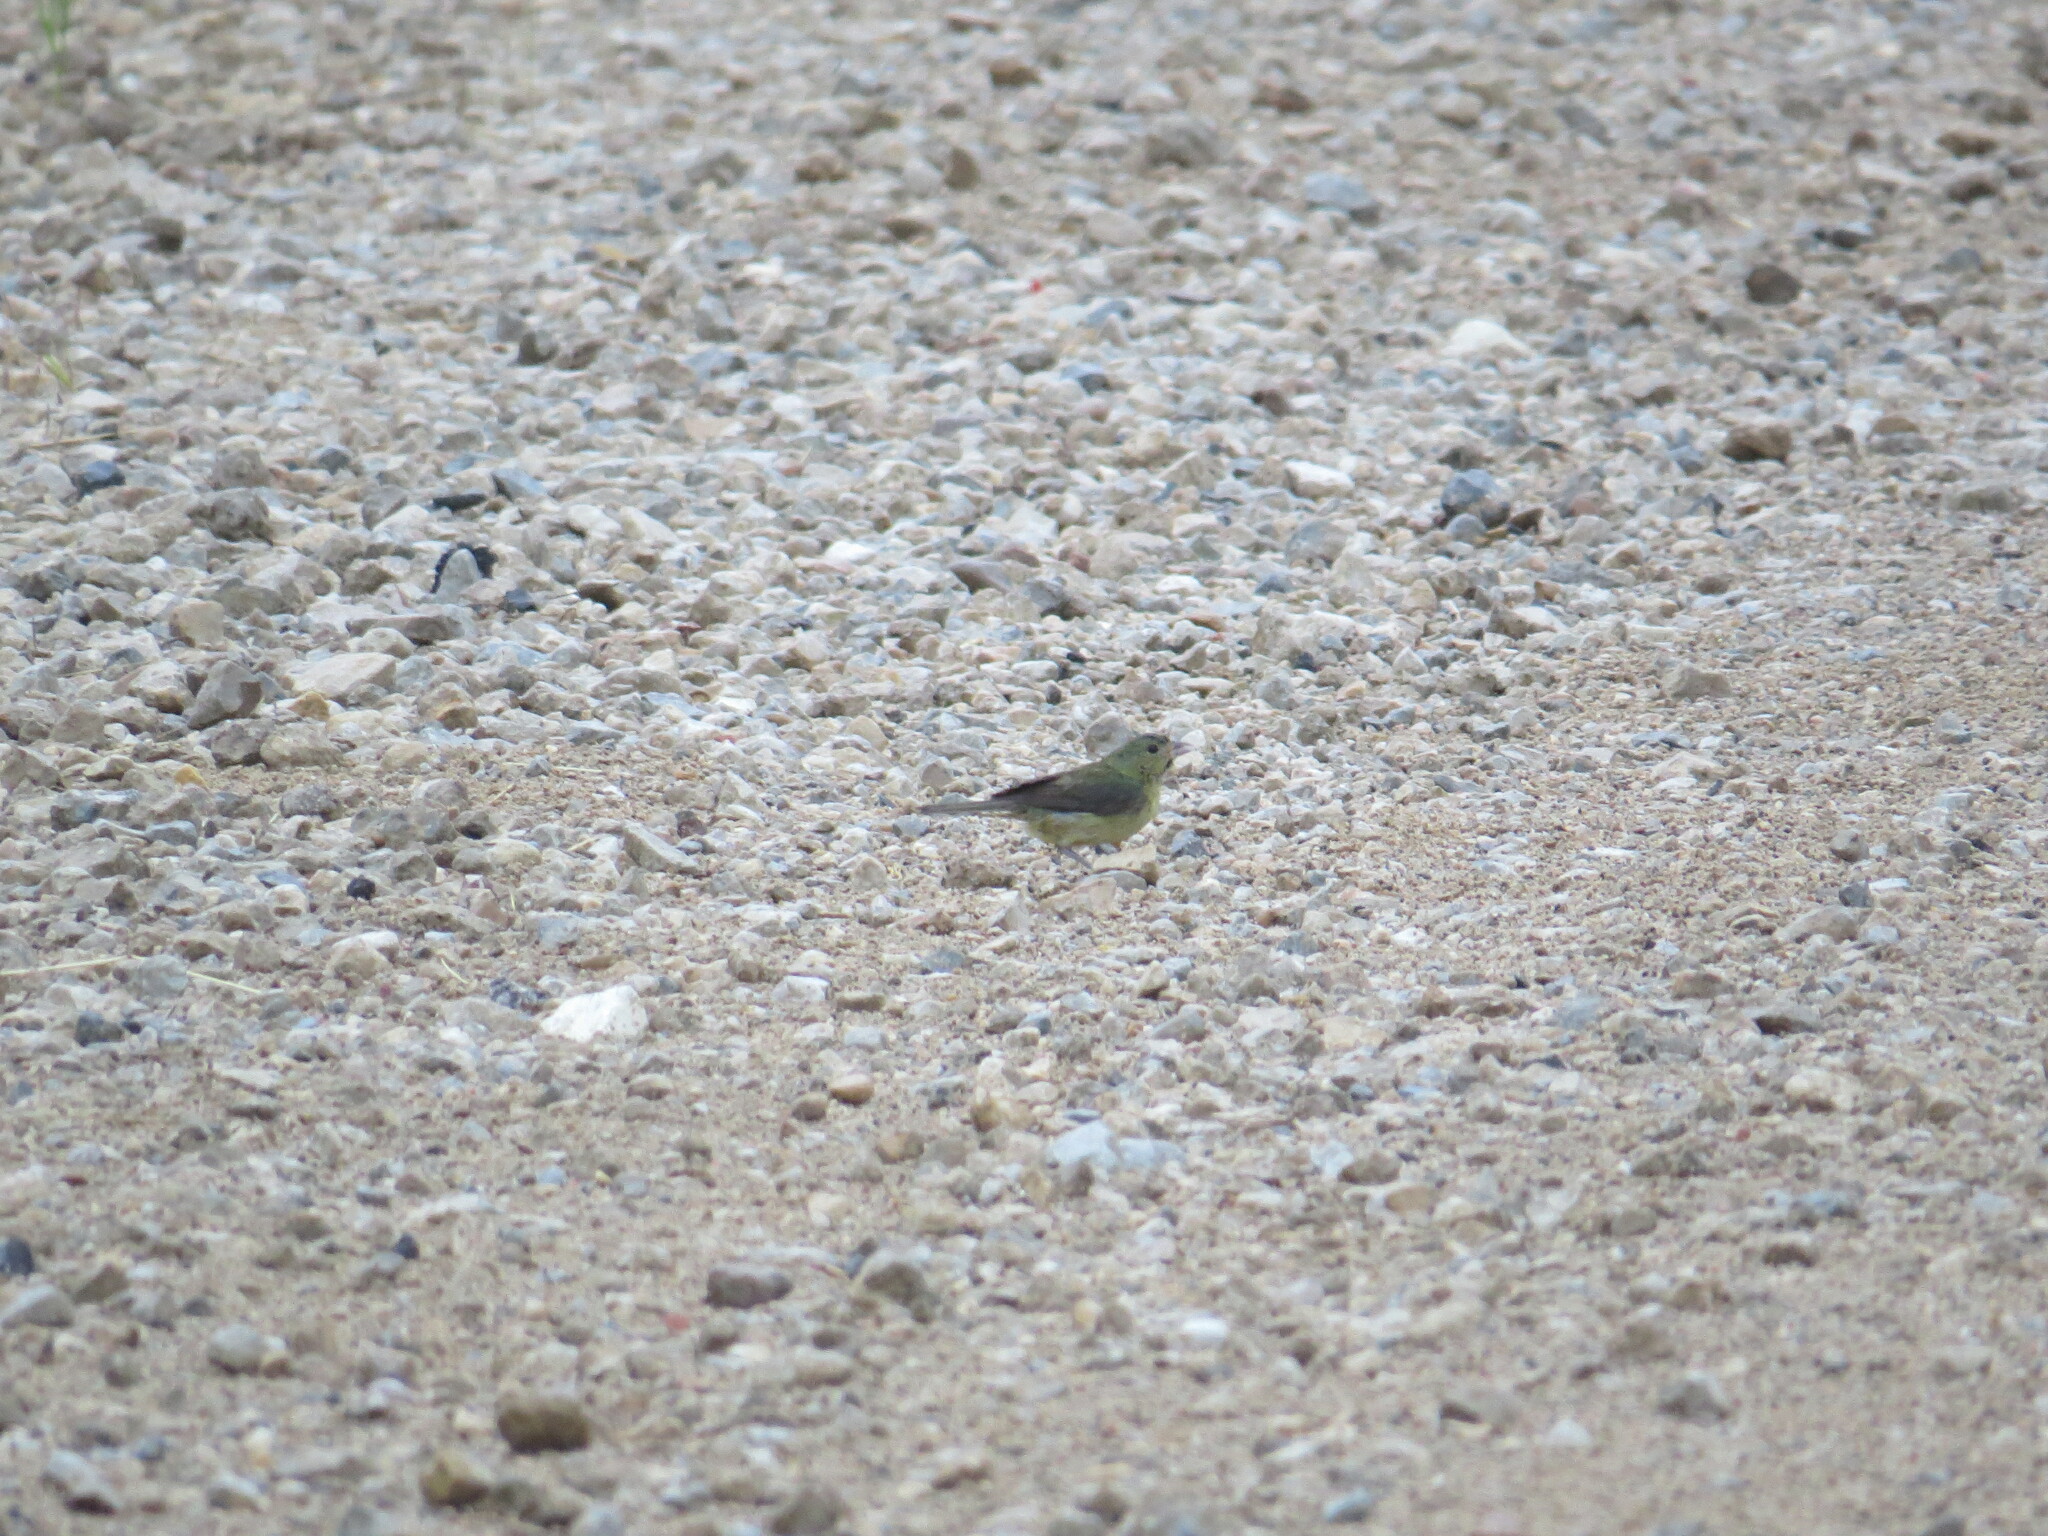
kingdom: Animalia
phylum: Chordata
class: Aves
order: Passeriformes
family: Cardinalidae
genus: Passerina
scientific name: Passerina ciris
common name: Painted bunting
